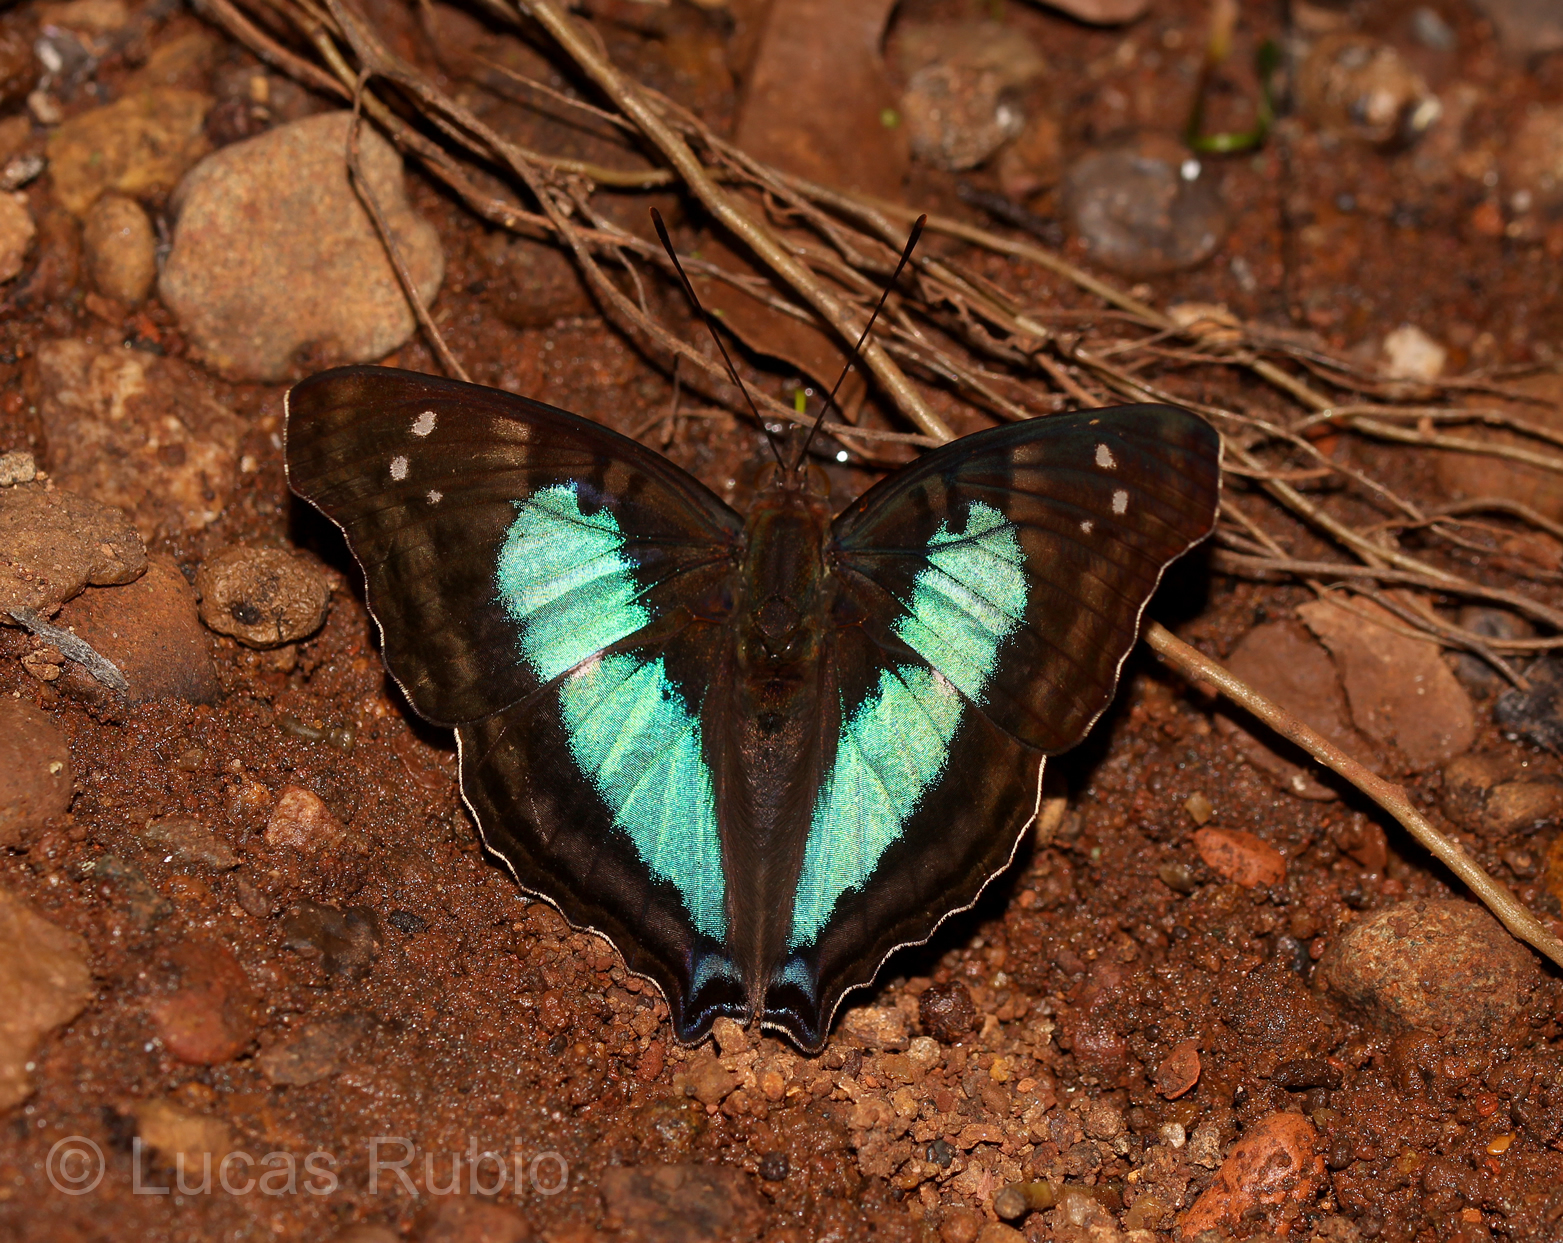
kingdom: Animalia
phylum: Arthropoda
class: Insecta
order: Lepidoptera
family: Nymphalidae
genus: Doxocopa
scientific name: Doxocopa laurentia
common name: Turquoise emperor
